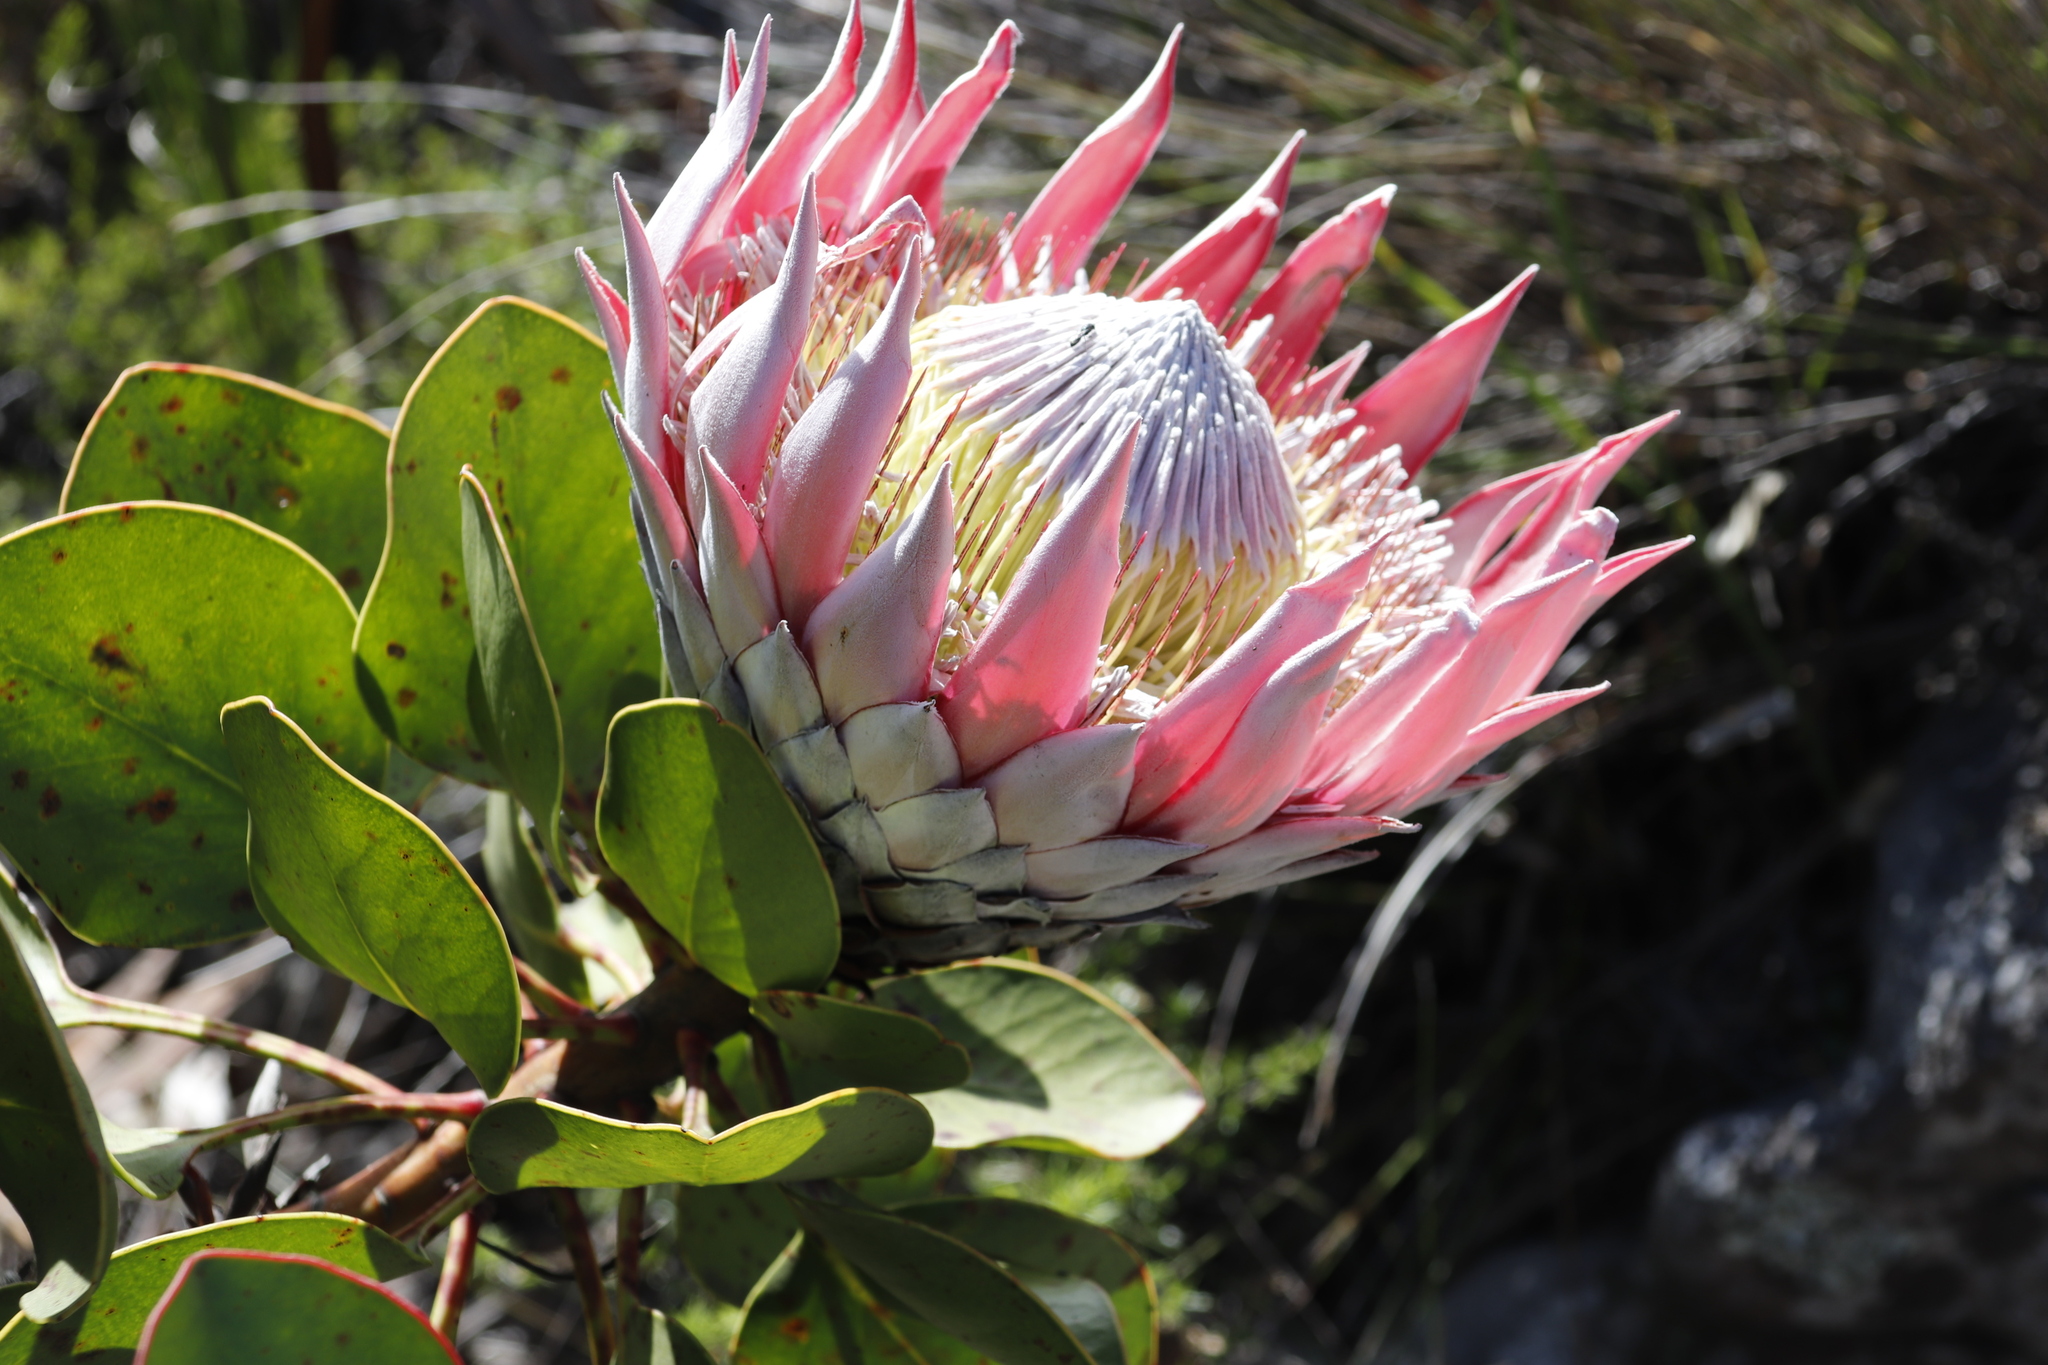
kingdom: Plantae
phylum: Tracheophyta
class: Magnoliopsida
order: Proteales
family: Proteaceae
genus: Protea
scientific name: Protea cynaroides
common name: King protea
